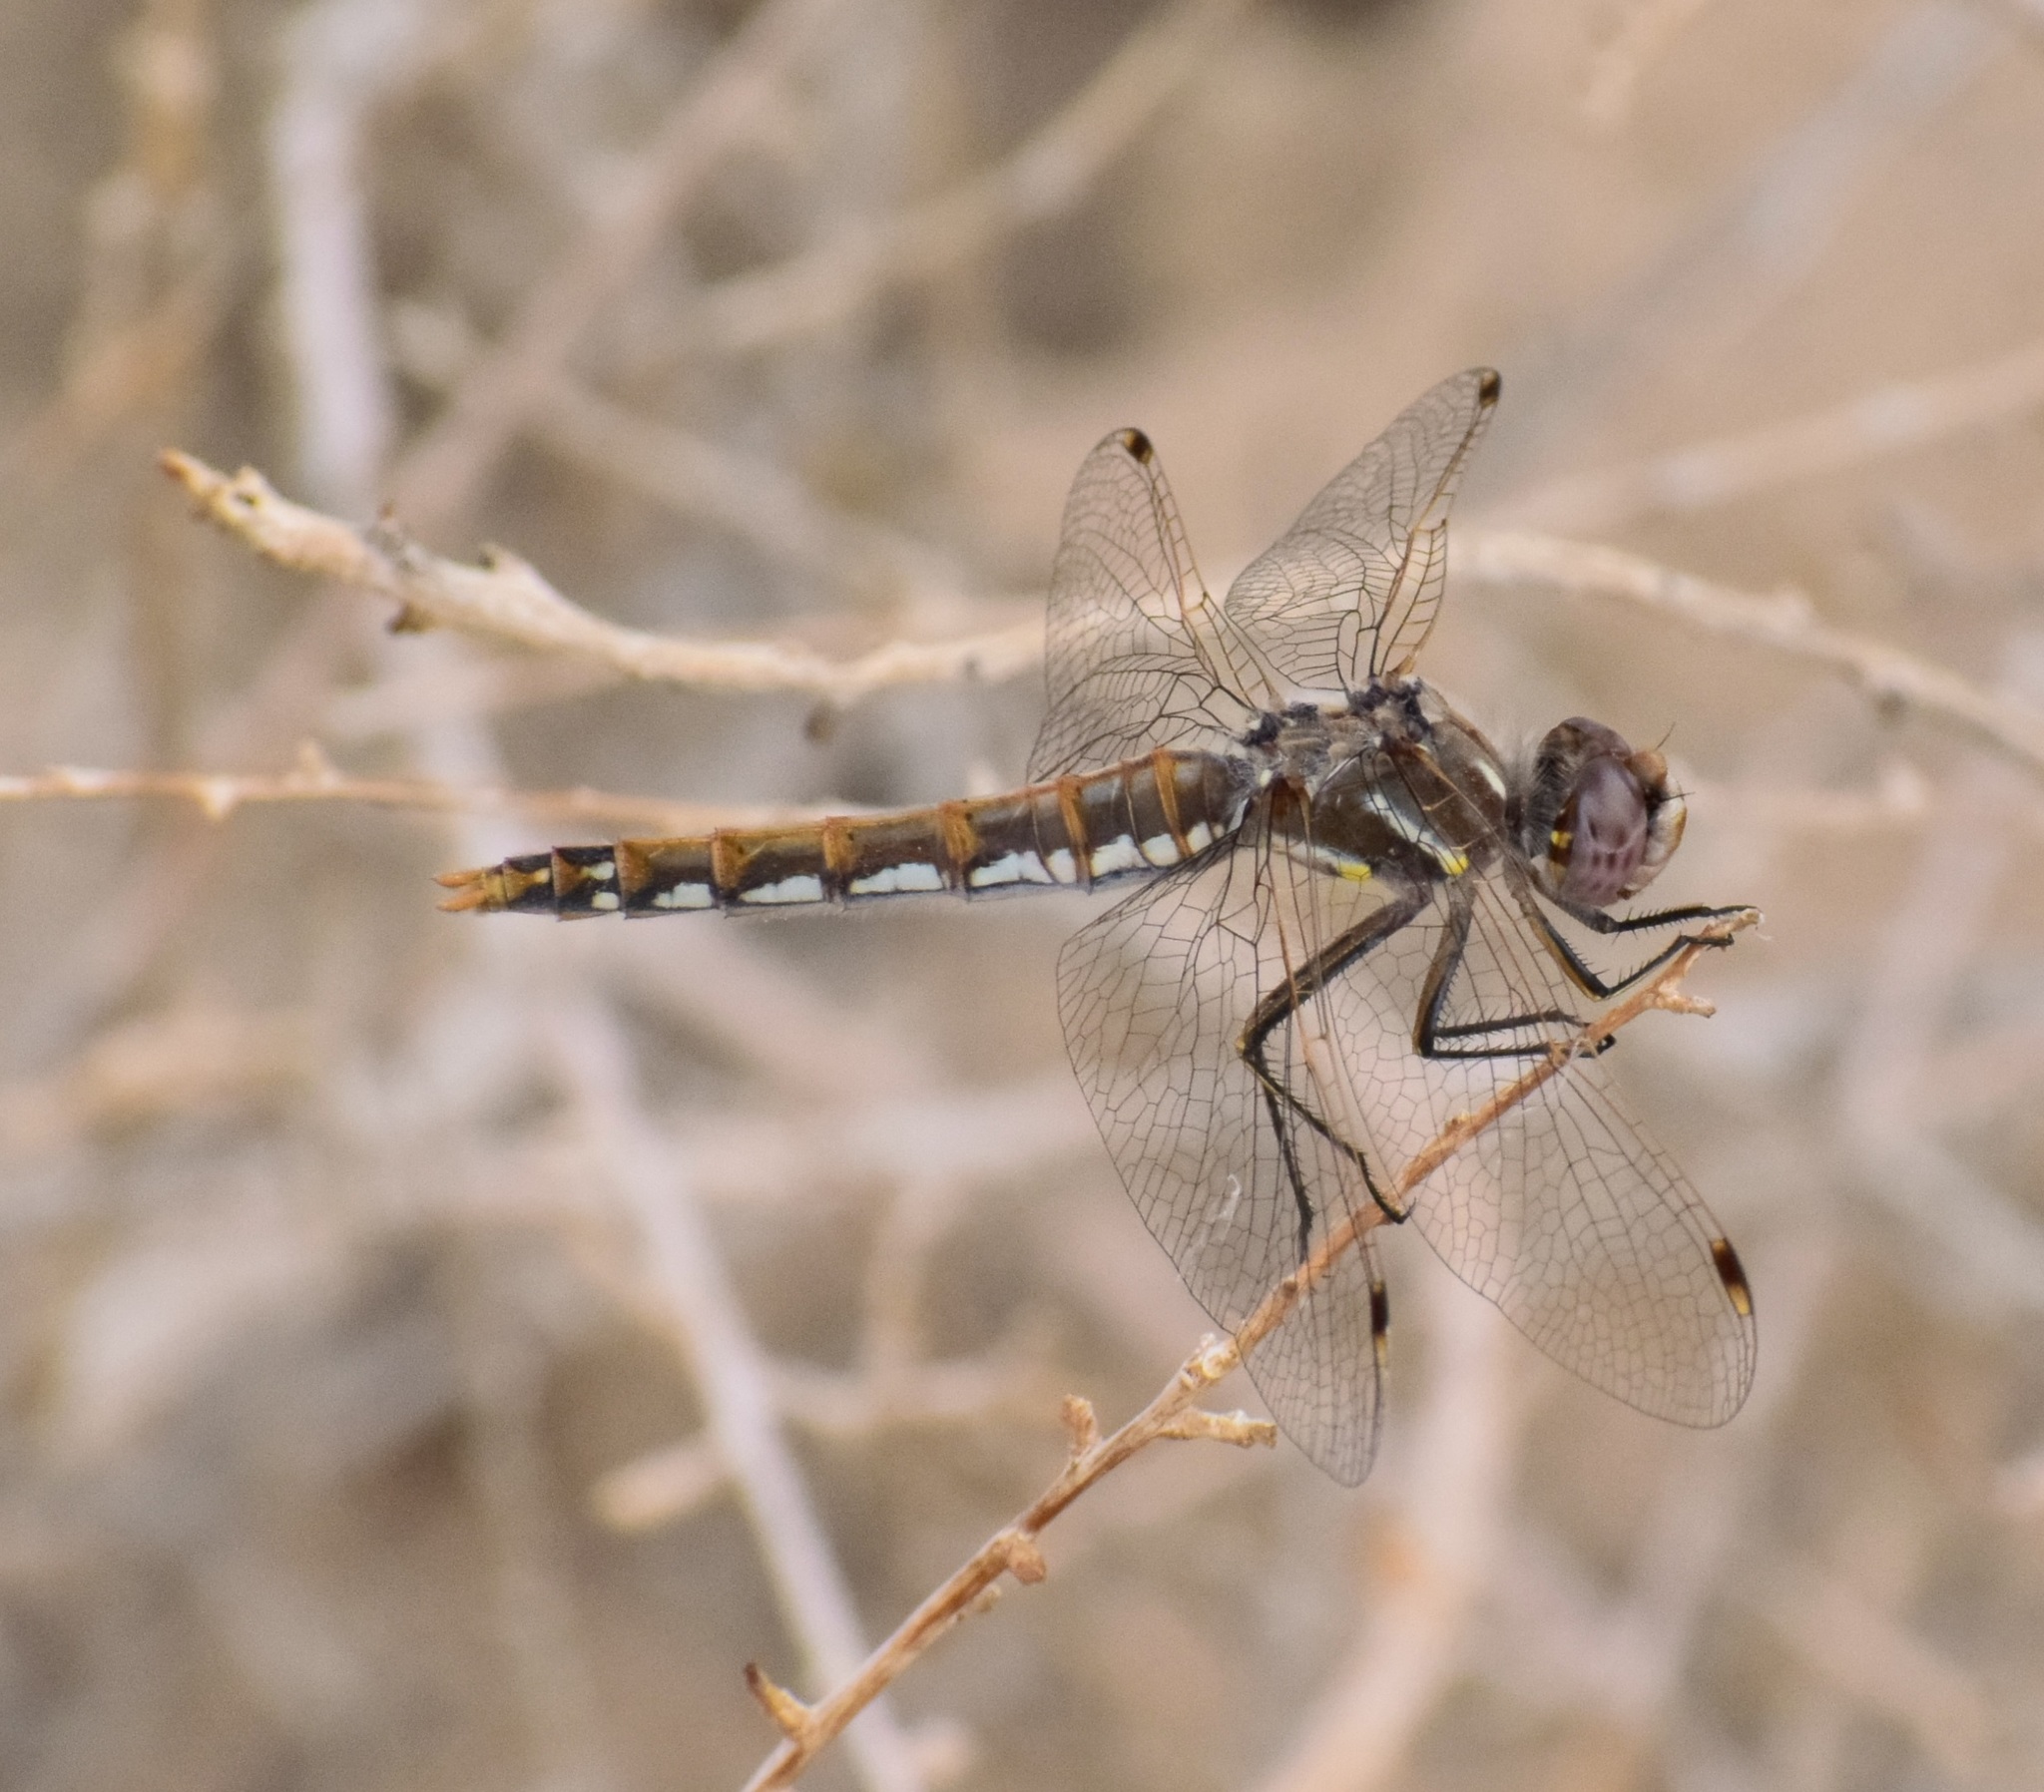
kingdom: Animalia
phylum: Arthropoda
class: Insecta
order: Odonata
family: Libellulidae
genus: Sympetrum
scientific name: Sympetrum corruptum
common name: Variegated meadowhawk
